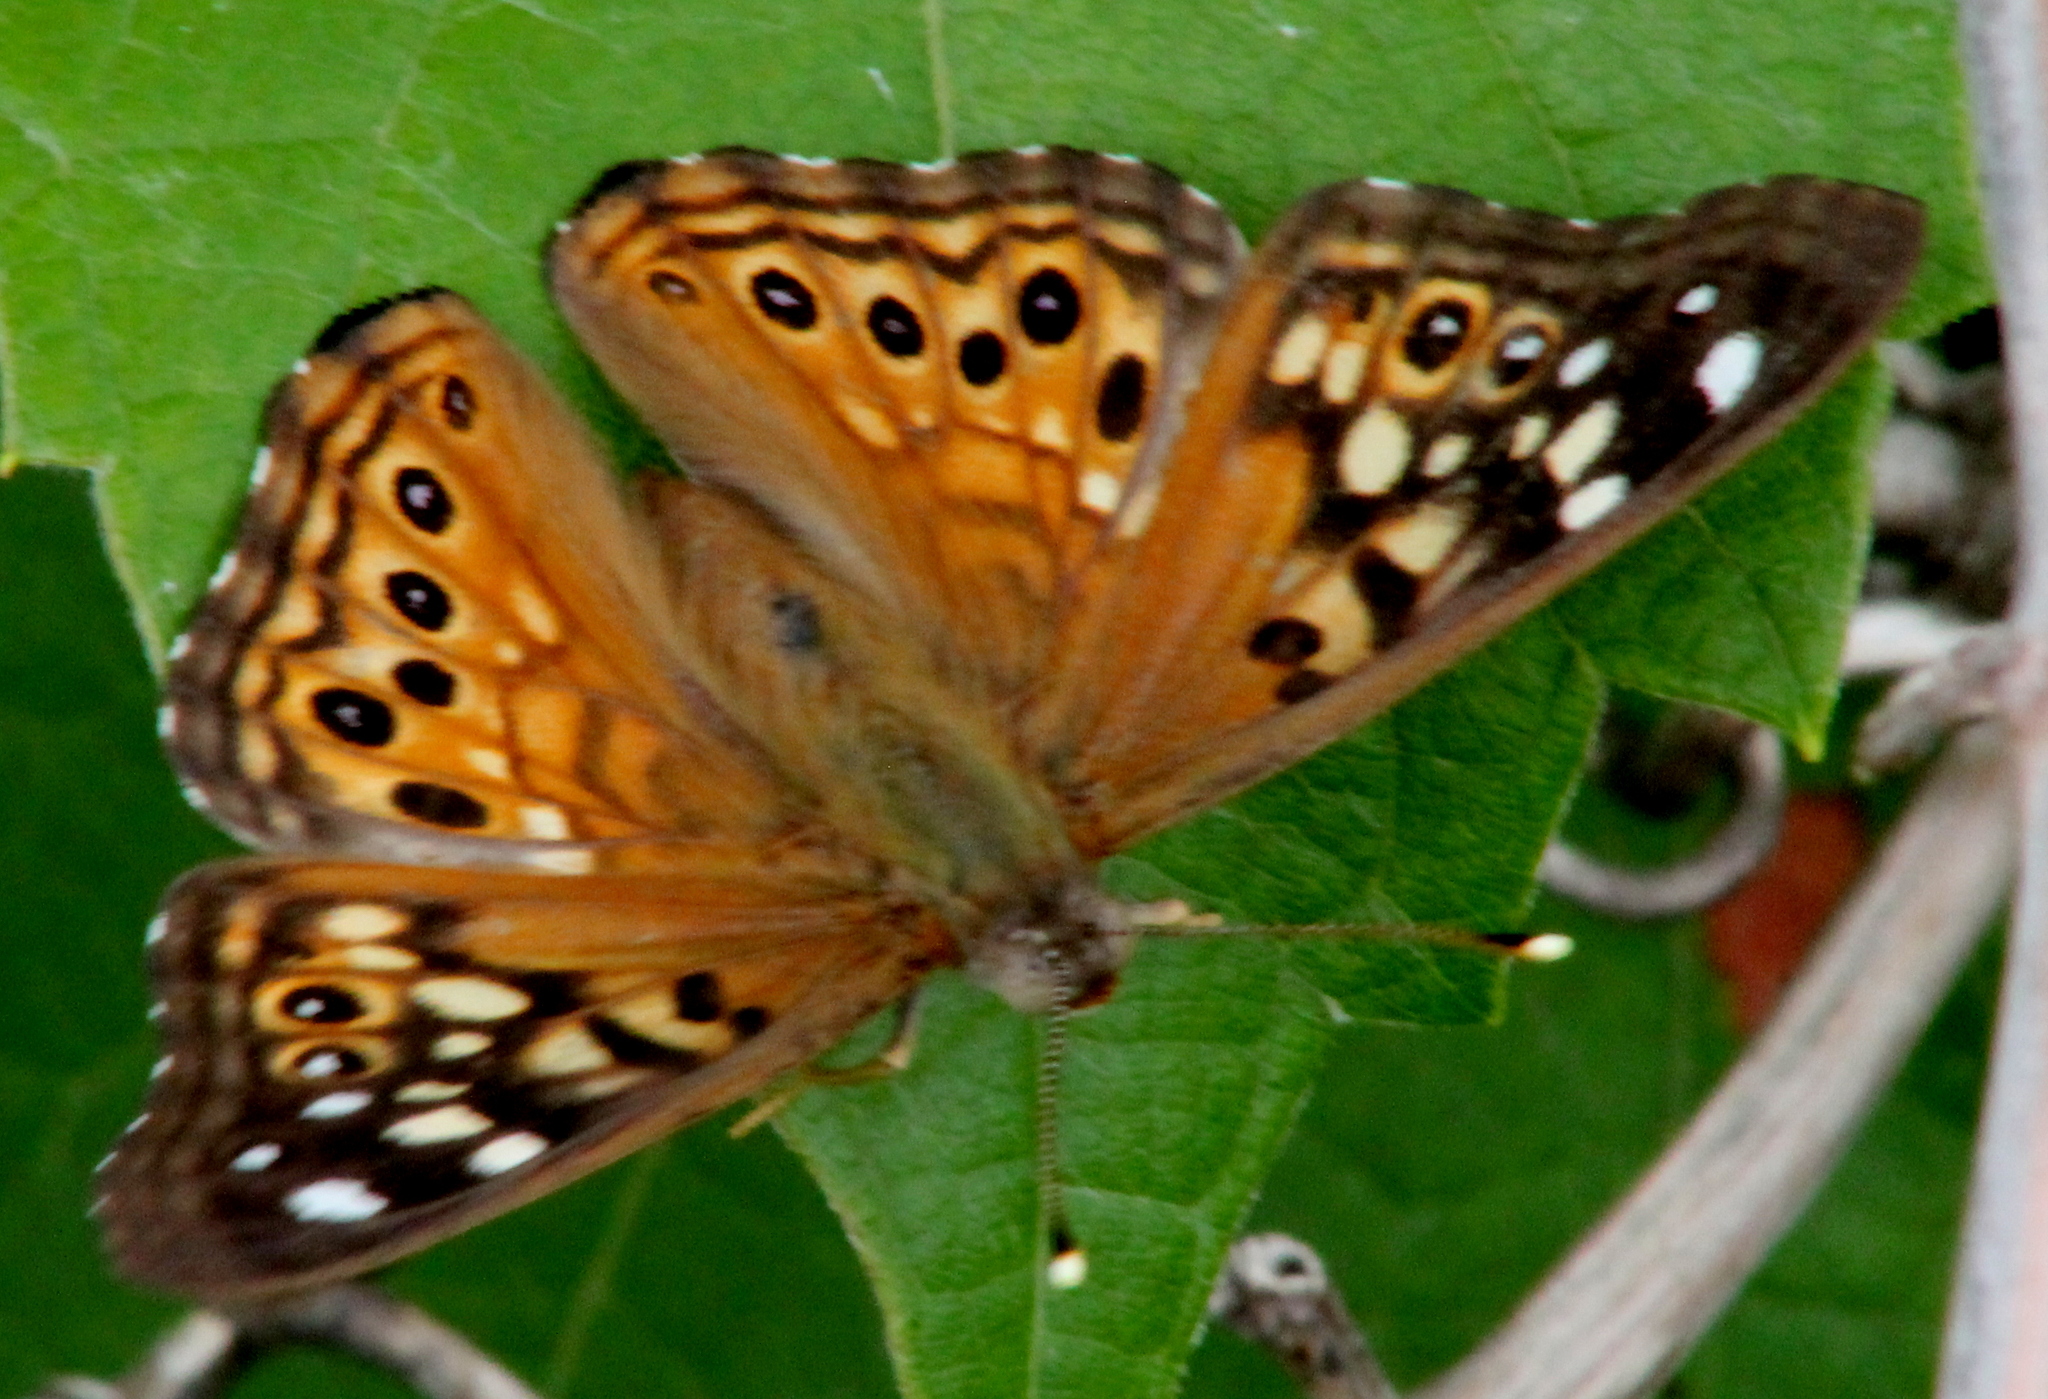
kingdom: Animalia
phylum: Arthropoda
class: Insecta
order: Lepidoptera
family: Nymphalidae
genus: Asterocampa
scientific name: Asterocampa celtis
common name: Hackberry emperor
